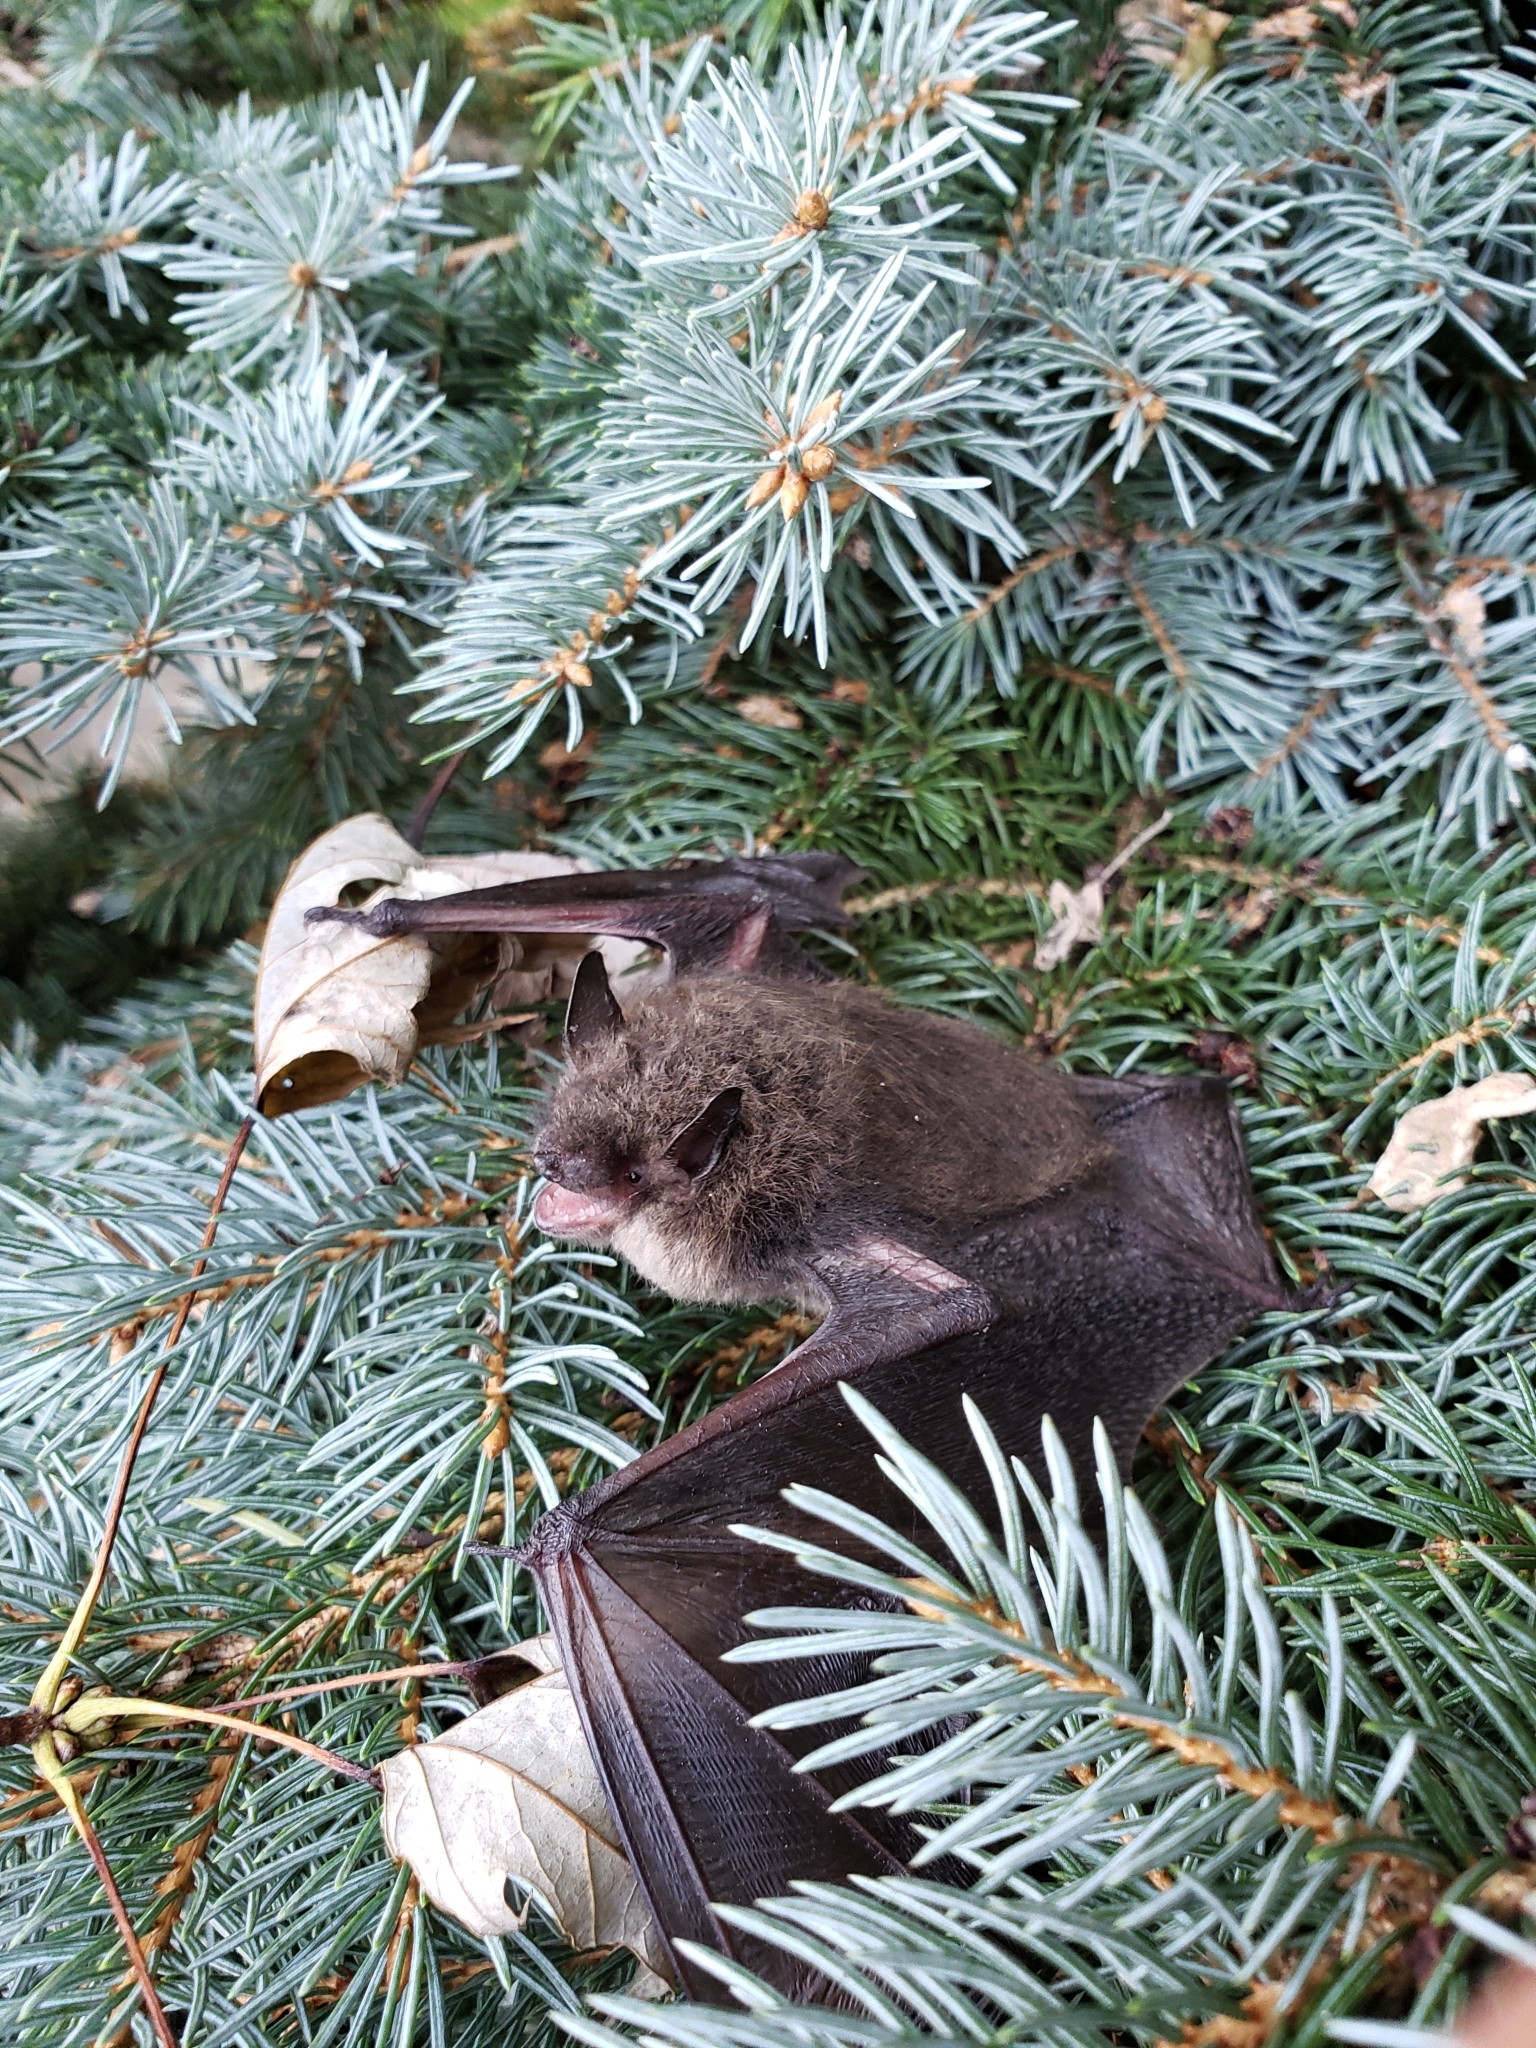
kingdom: Animalia
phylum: Chordata
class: Mammalia
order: Chiroptera
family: Vespertilionidae
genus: Myotis
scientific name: Myotis lucifugus
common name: Little brown bat
